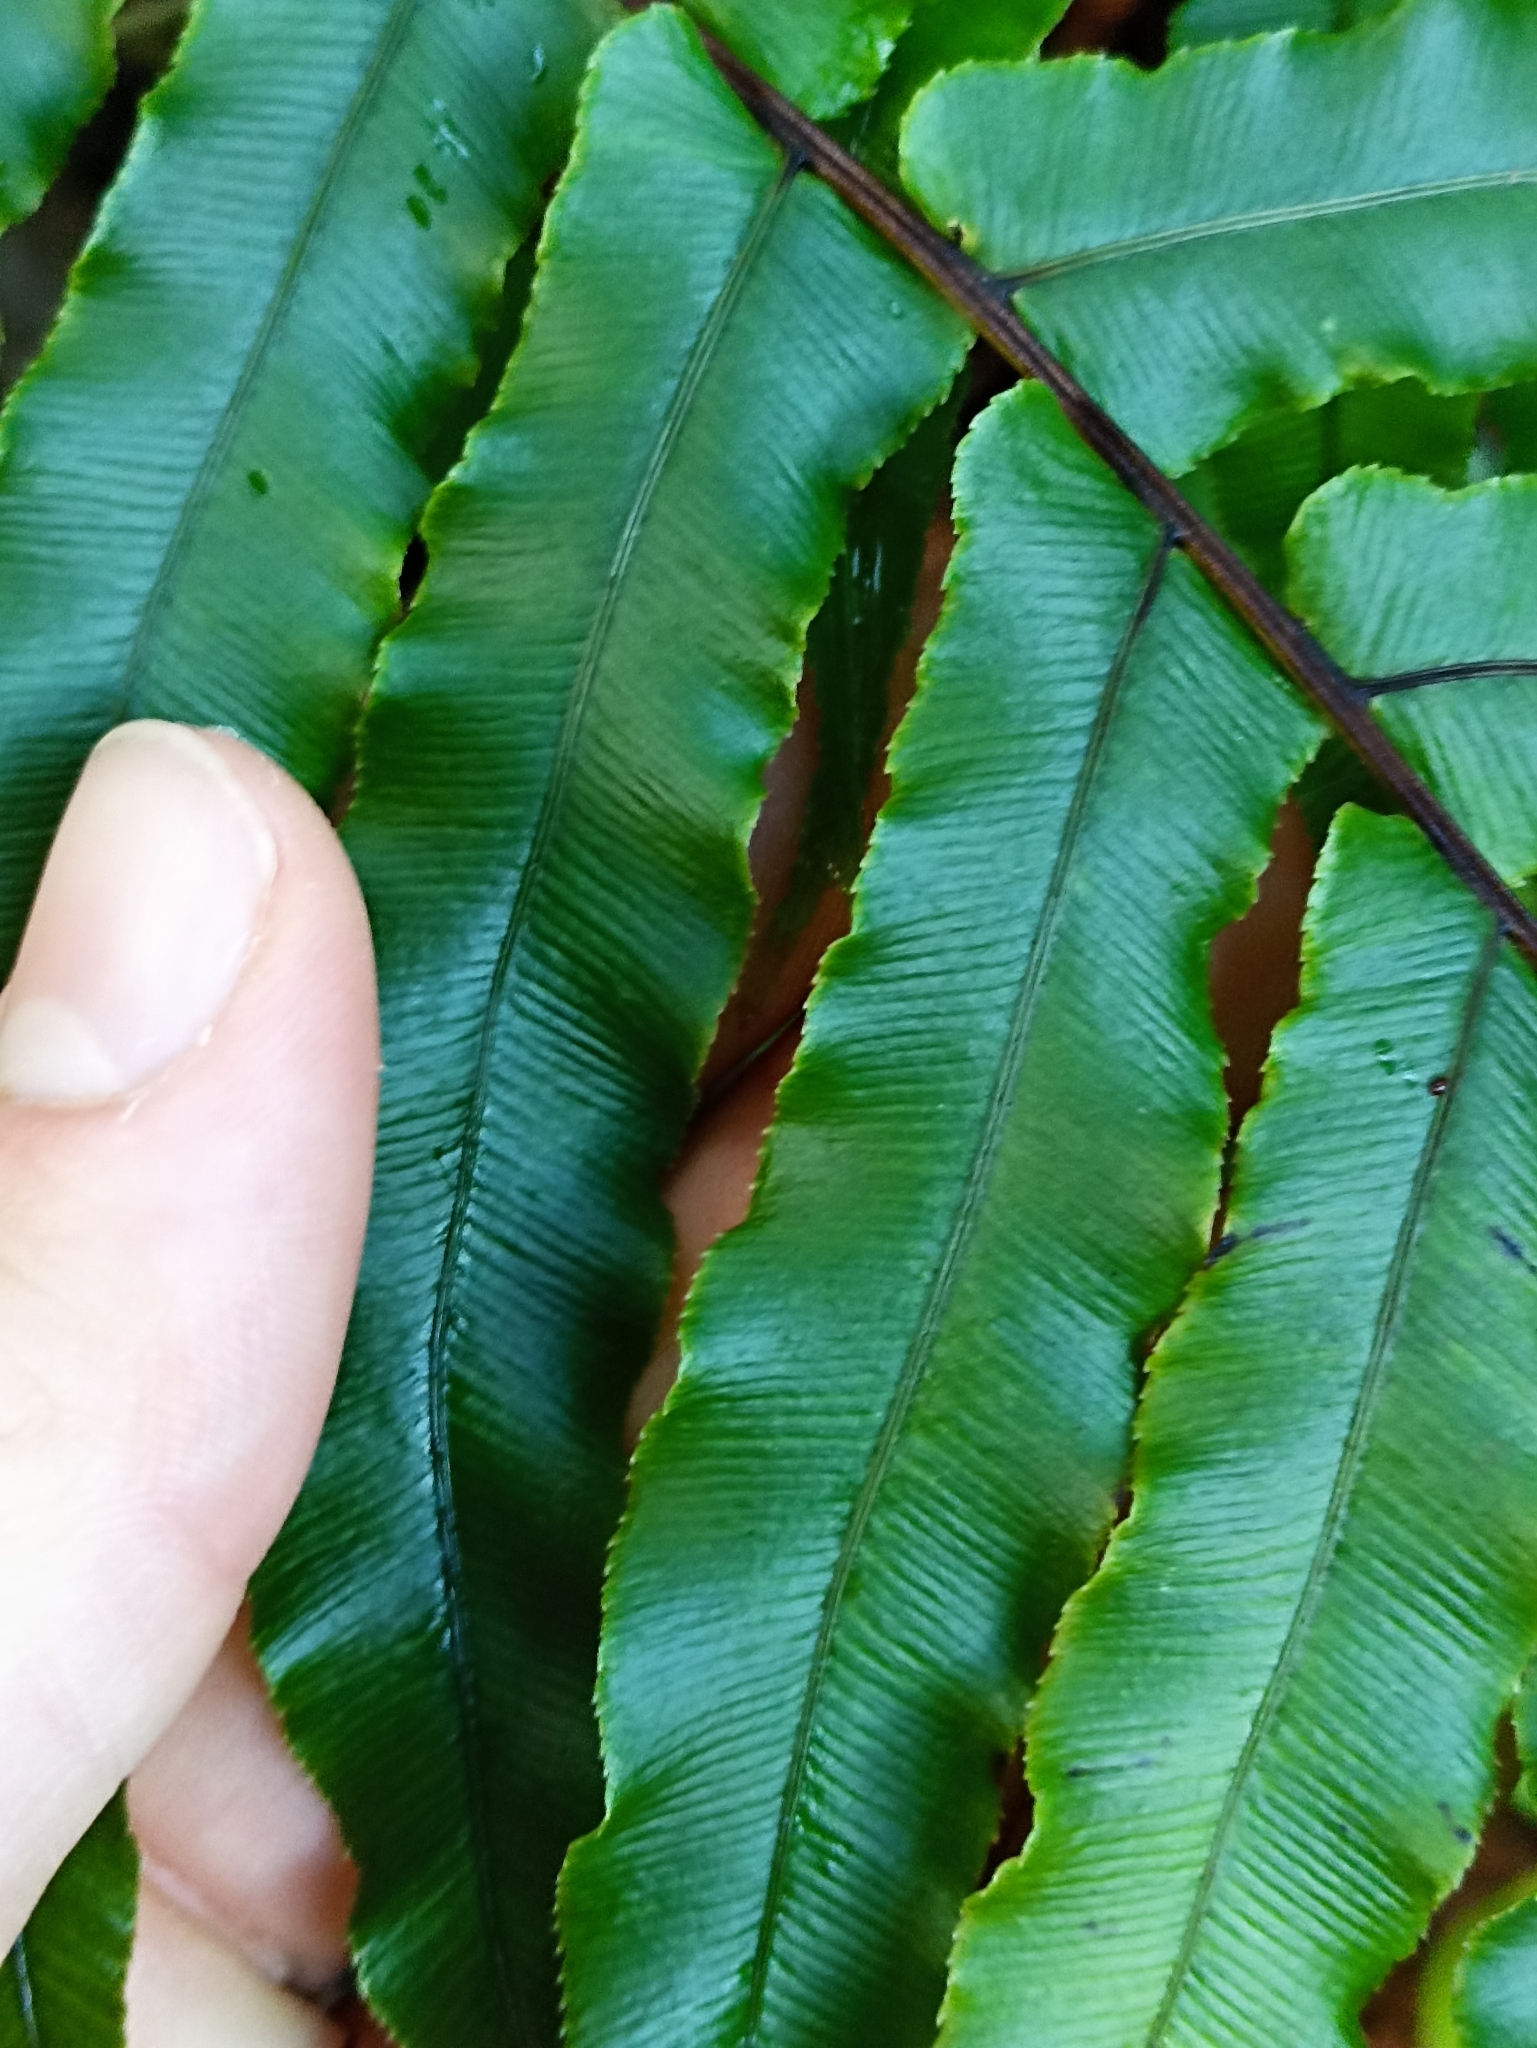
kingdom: Plantae
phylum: Tracheophyta
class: Polypodiopsida
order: Polypodiales
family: Blechnaceae
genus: Parablechnum
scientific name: Parablechnum novae-zelandiae
